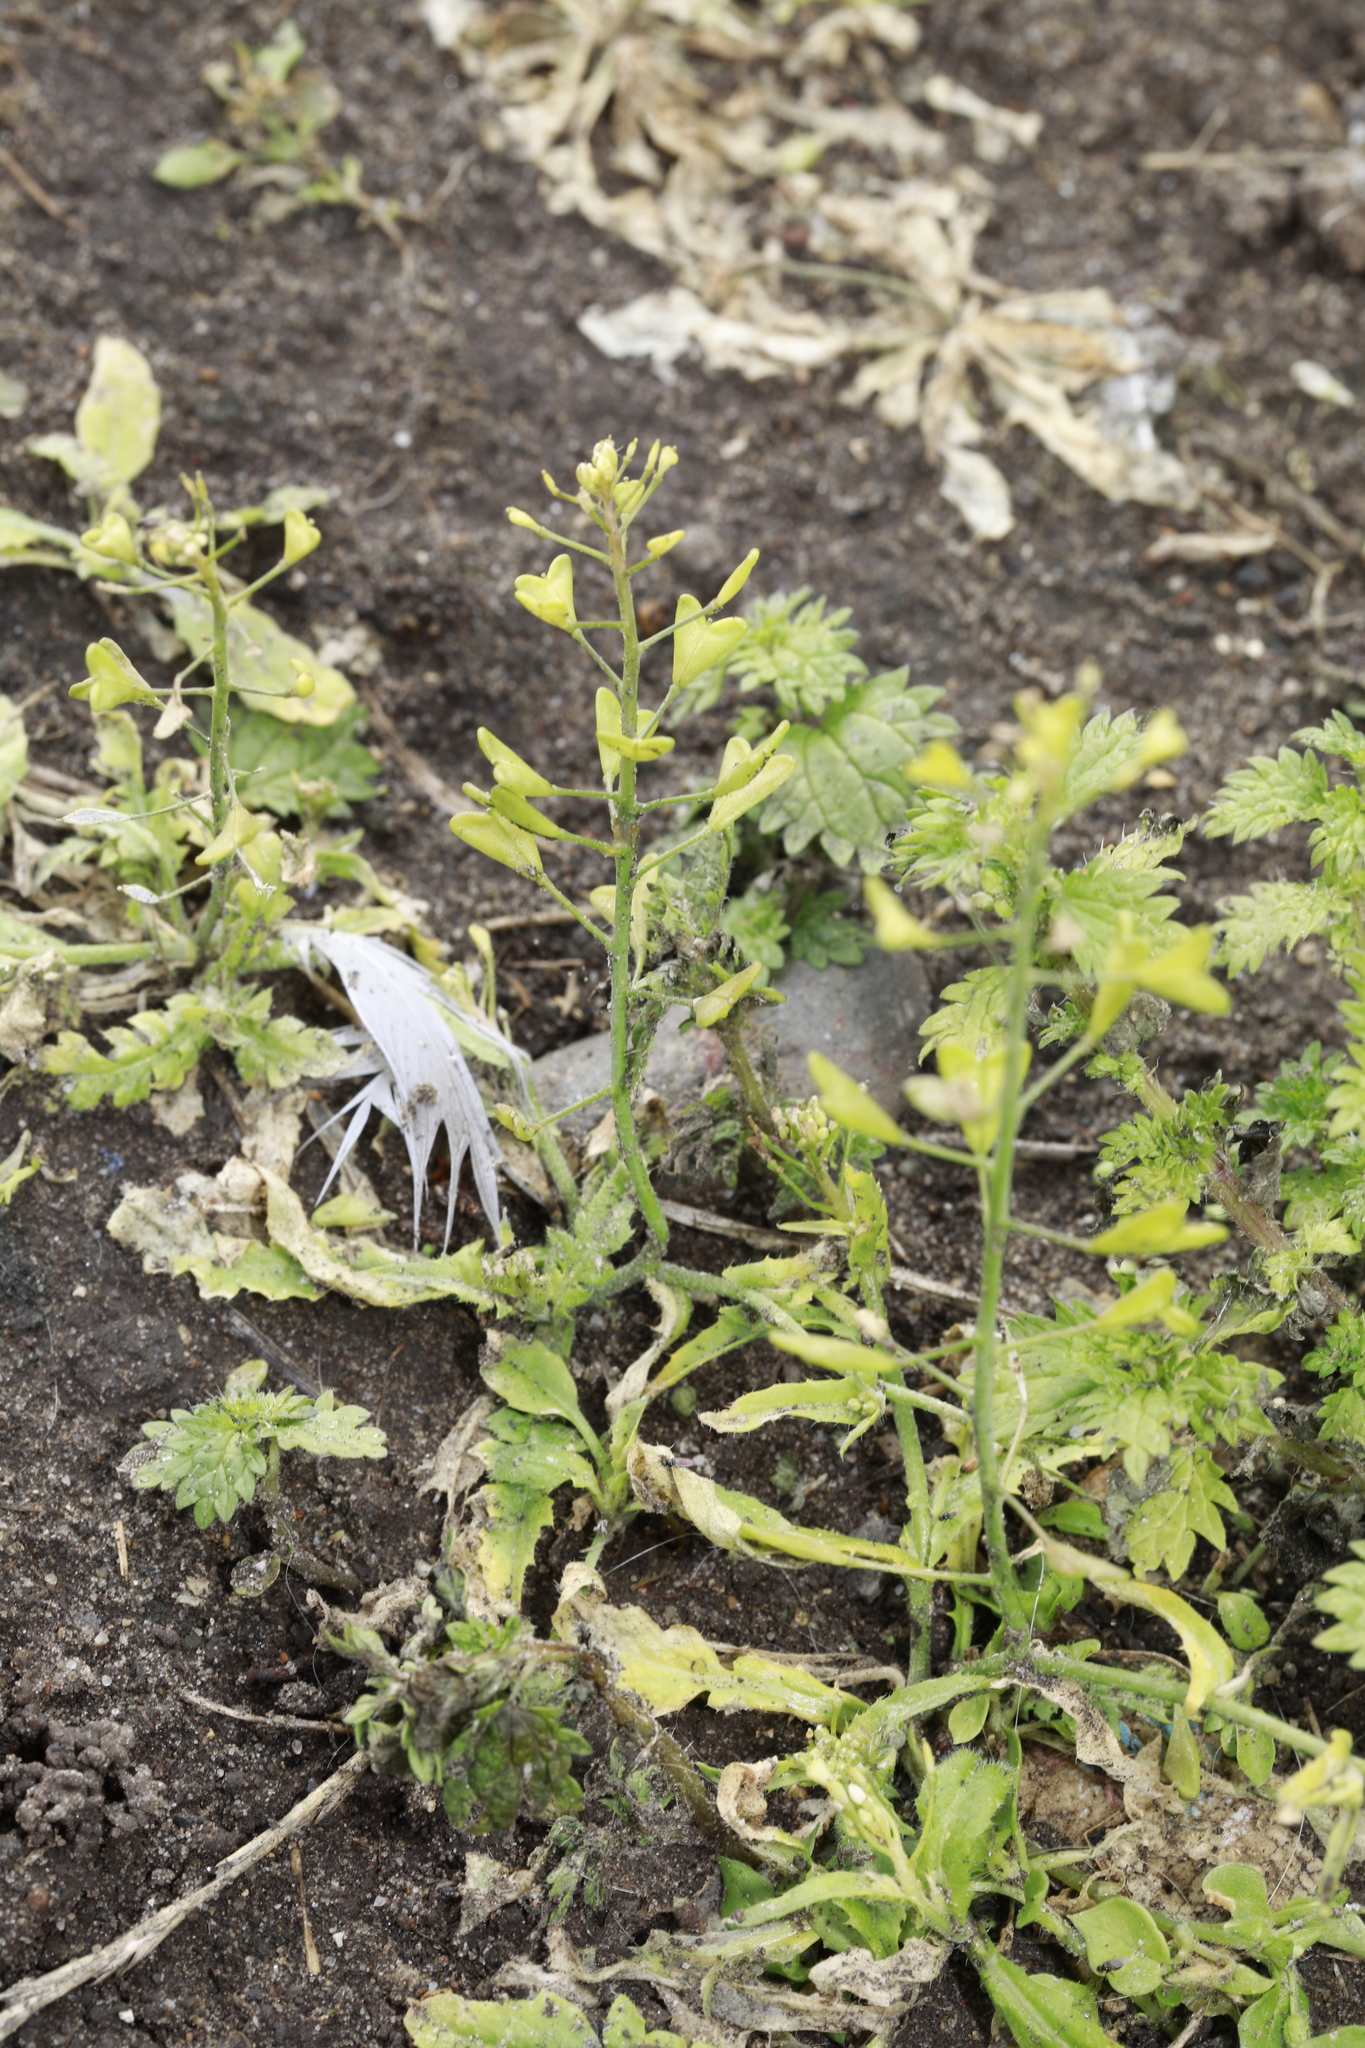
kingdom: Plantae
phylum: Tracheophyta
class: Magnoliopsida
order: Brassicales
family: Brassicaceae
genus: Capsella
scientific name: Capsella bursa-pastoris
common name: Shepherd's purse
